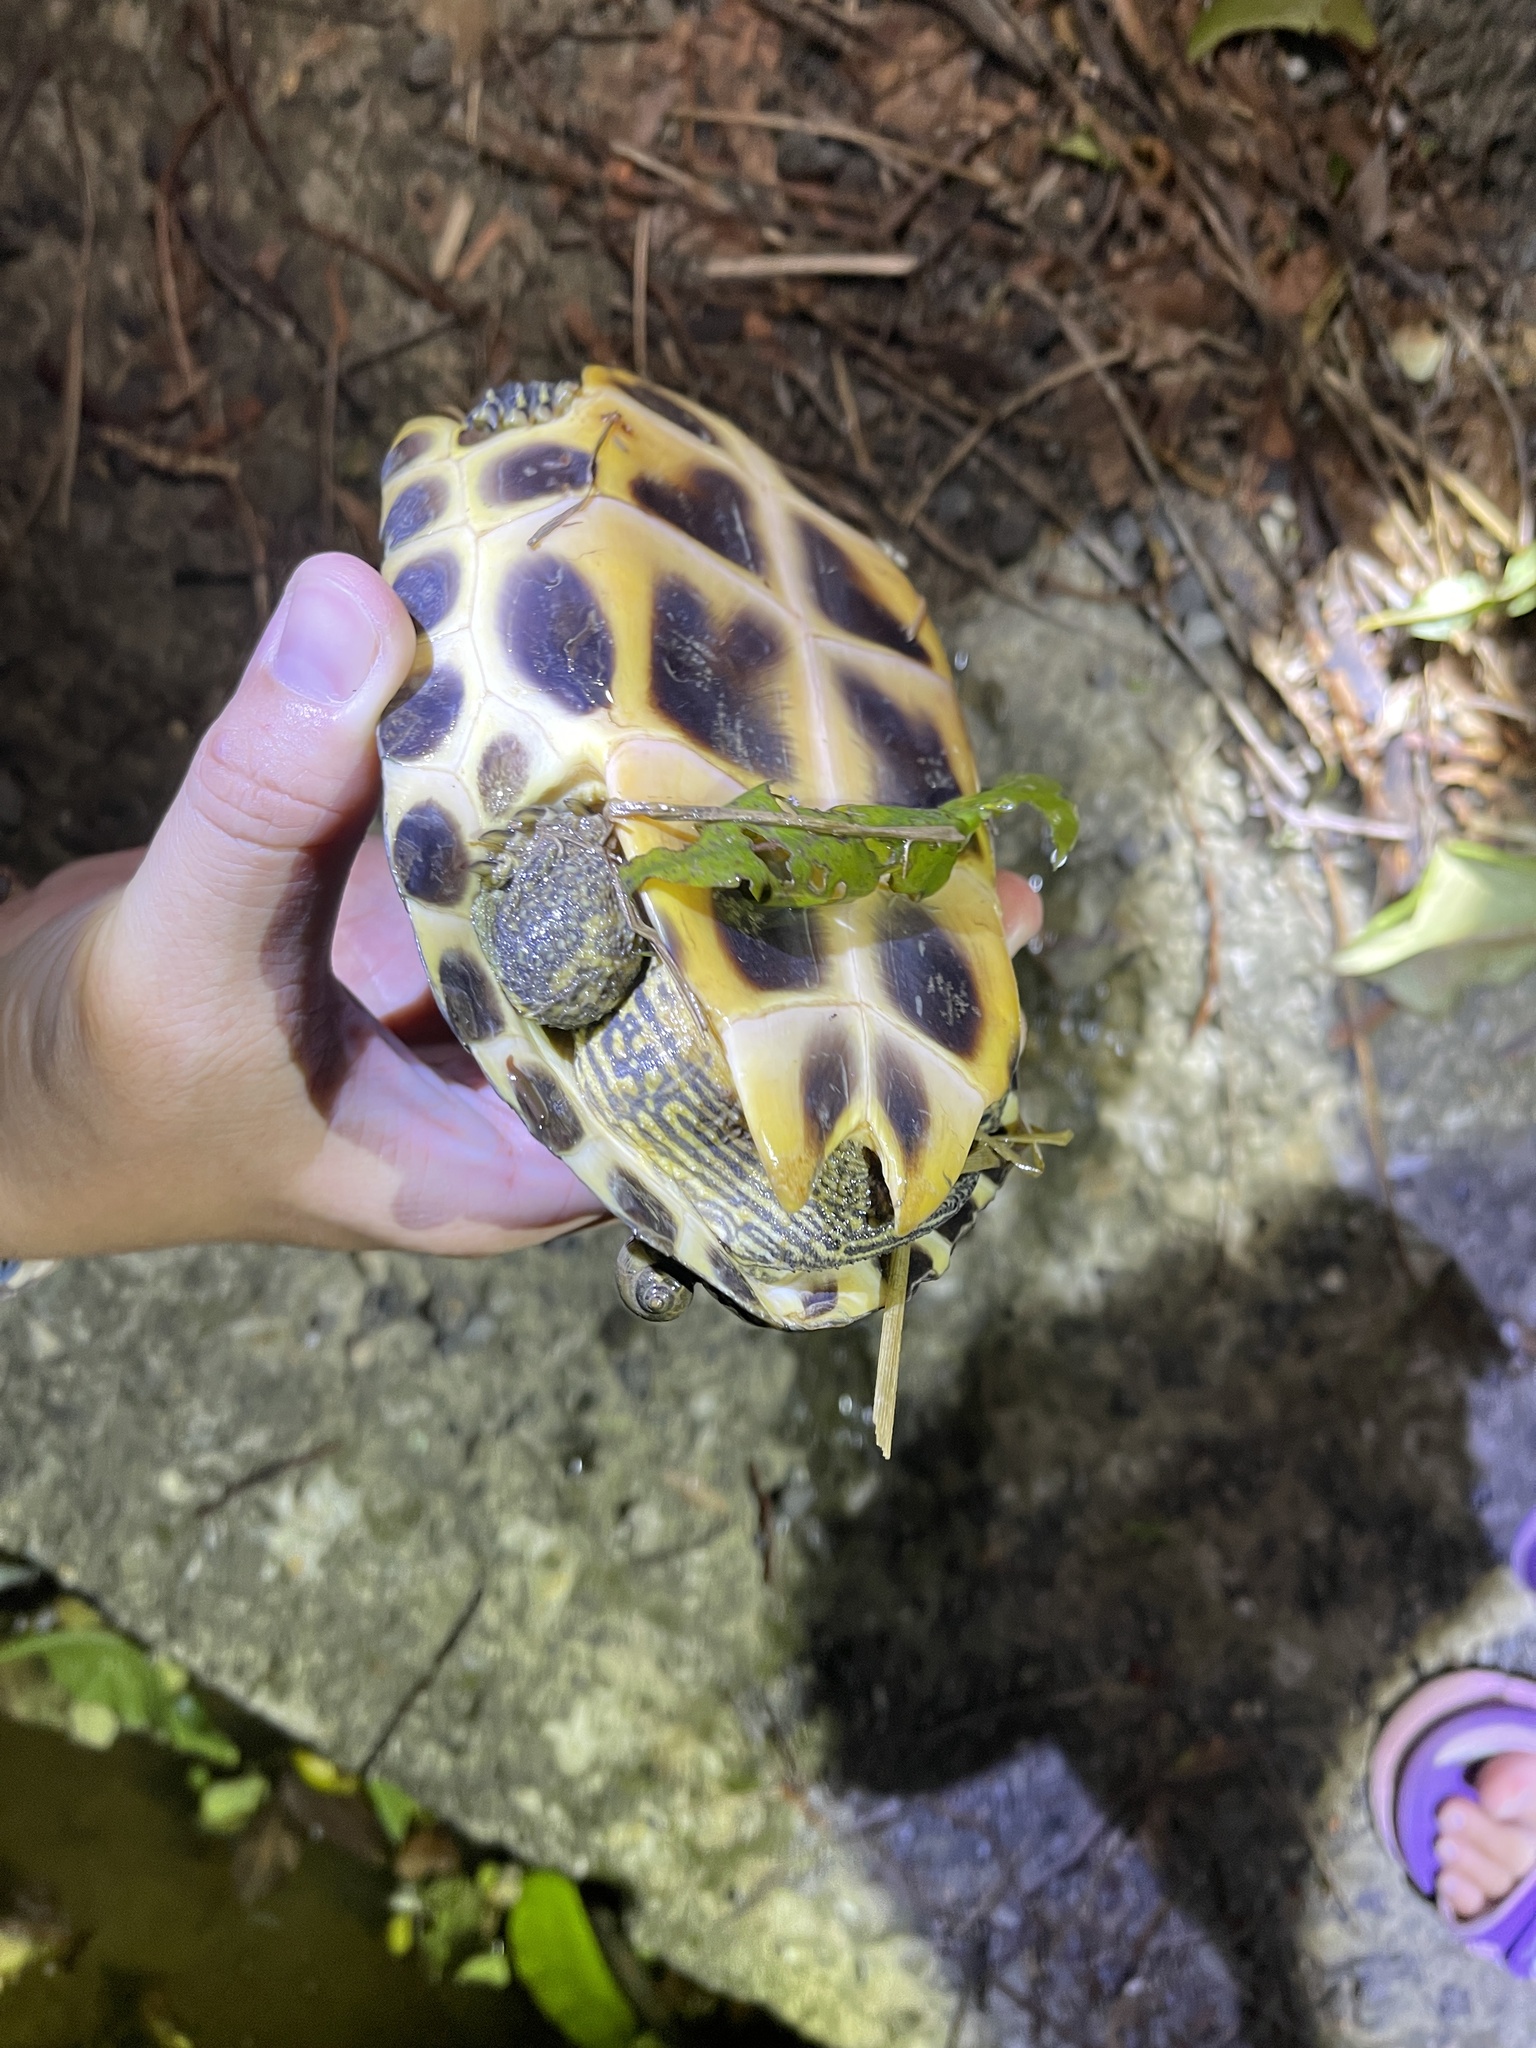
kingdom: Animalia
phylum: Chordata
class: Testudines
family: Geoemydidae
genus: Mauremys
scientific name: Mauremys mutica
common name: Yellow pond turtle
